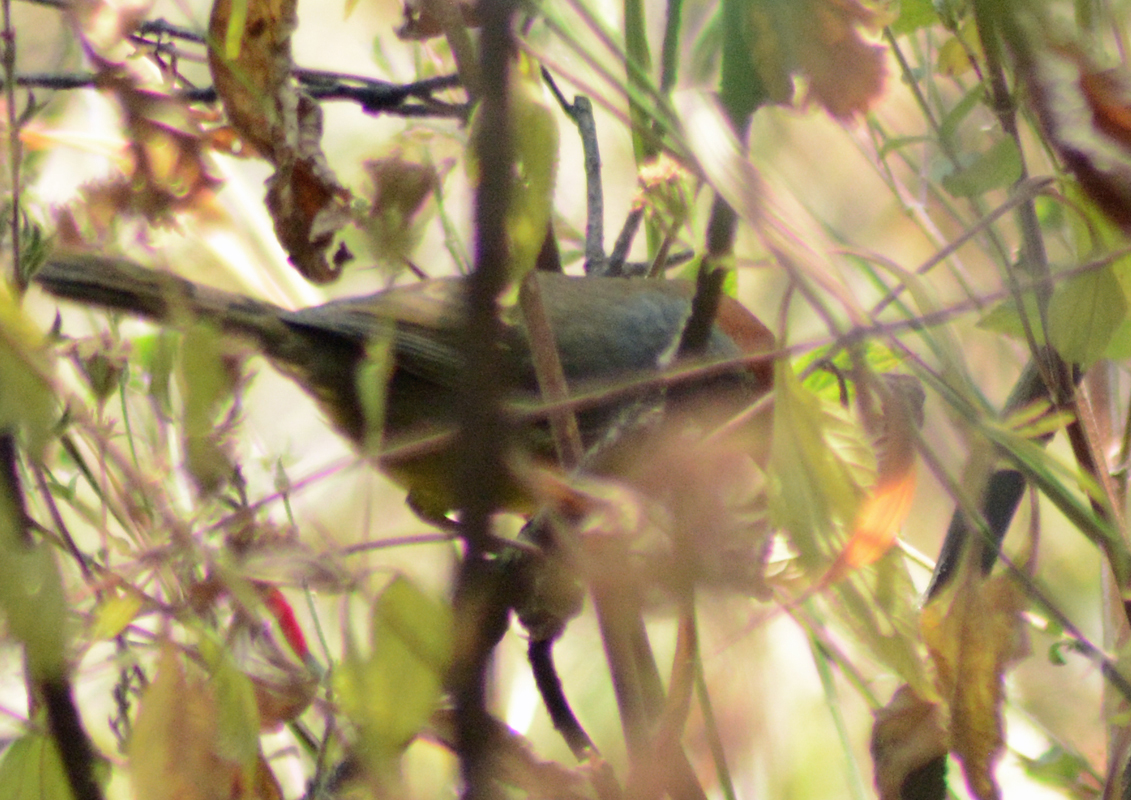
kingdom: Animalia
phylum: Chordata
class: Aves
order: Passeriformes
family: Passerellidae
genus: Atlapetes
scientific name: Atlapetes pileatus
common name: Rufous-capped brush-finch
